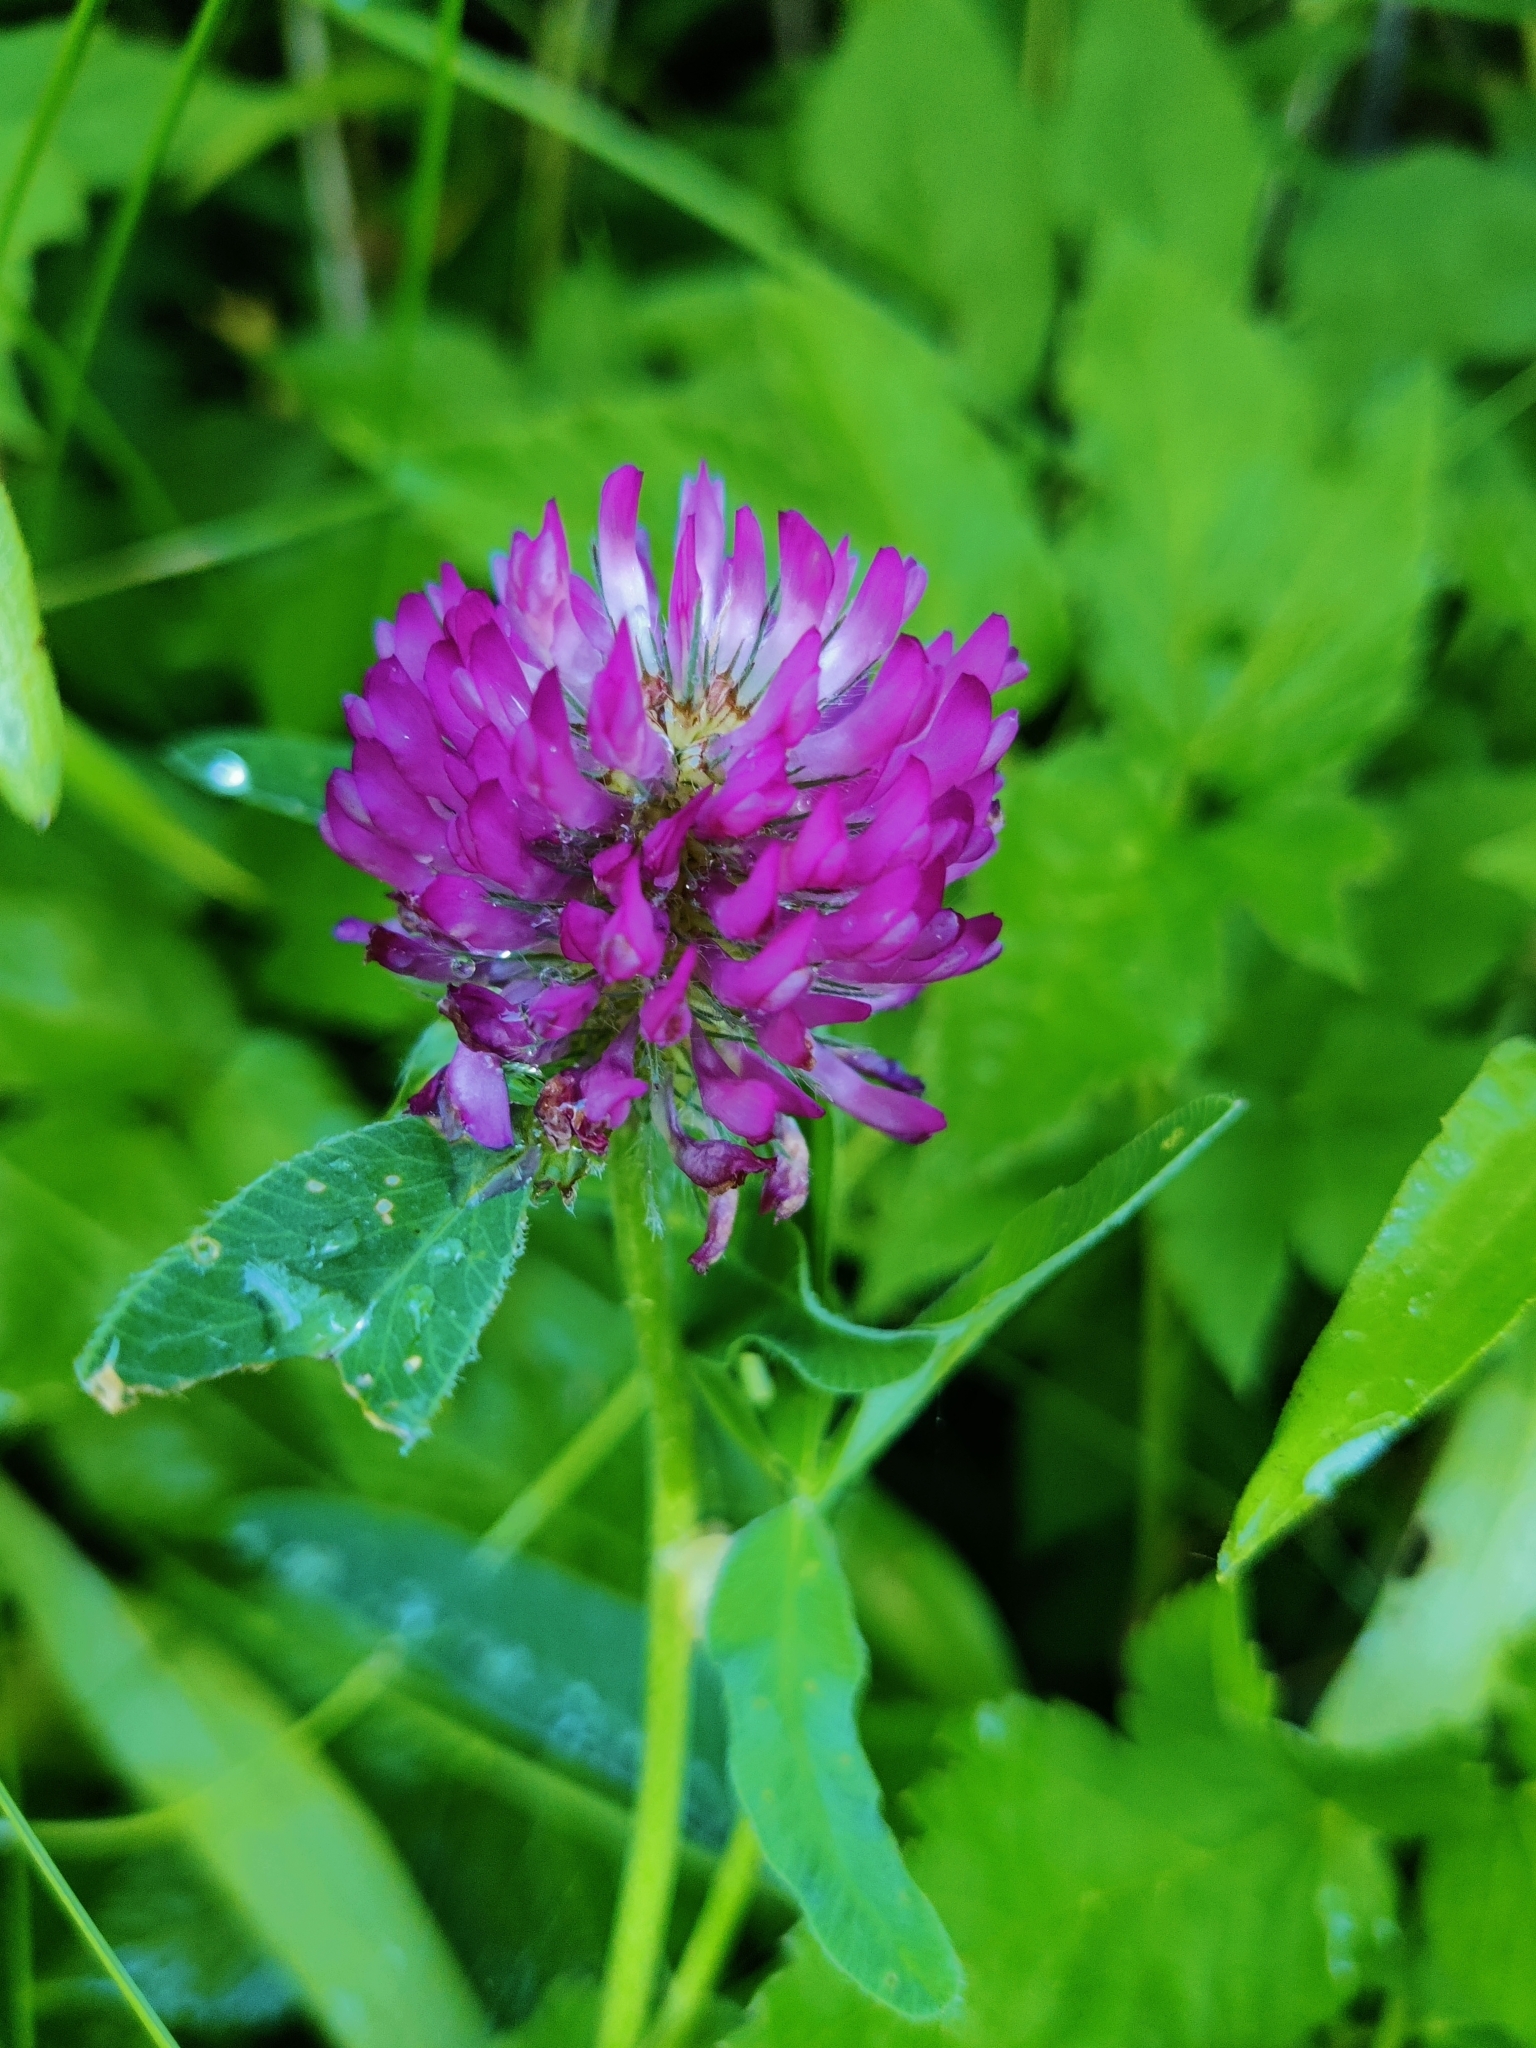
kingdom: Plantae
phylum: Tracheophyta
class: Magnoliopsida
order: Fabales
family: Fabaceae
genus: Trifolium
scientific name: Trifolium medium
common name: Zigzag clover
